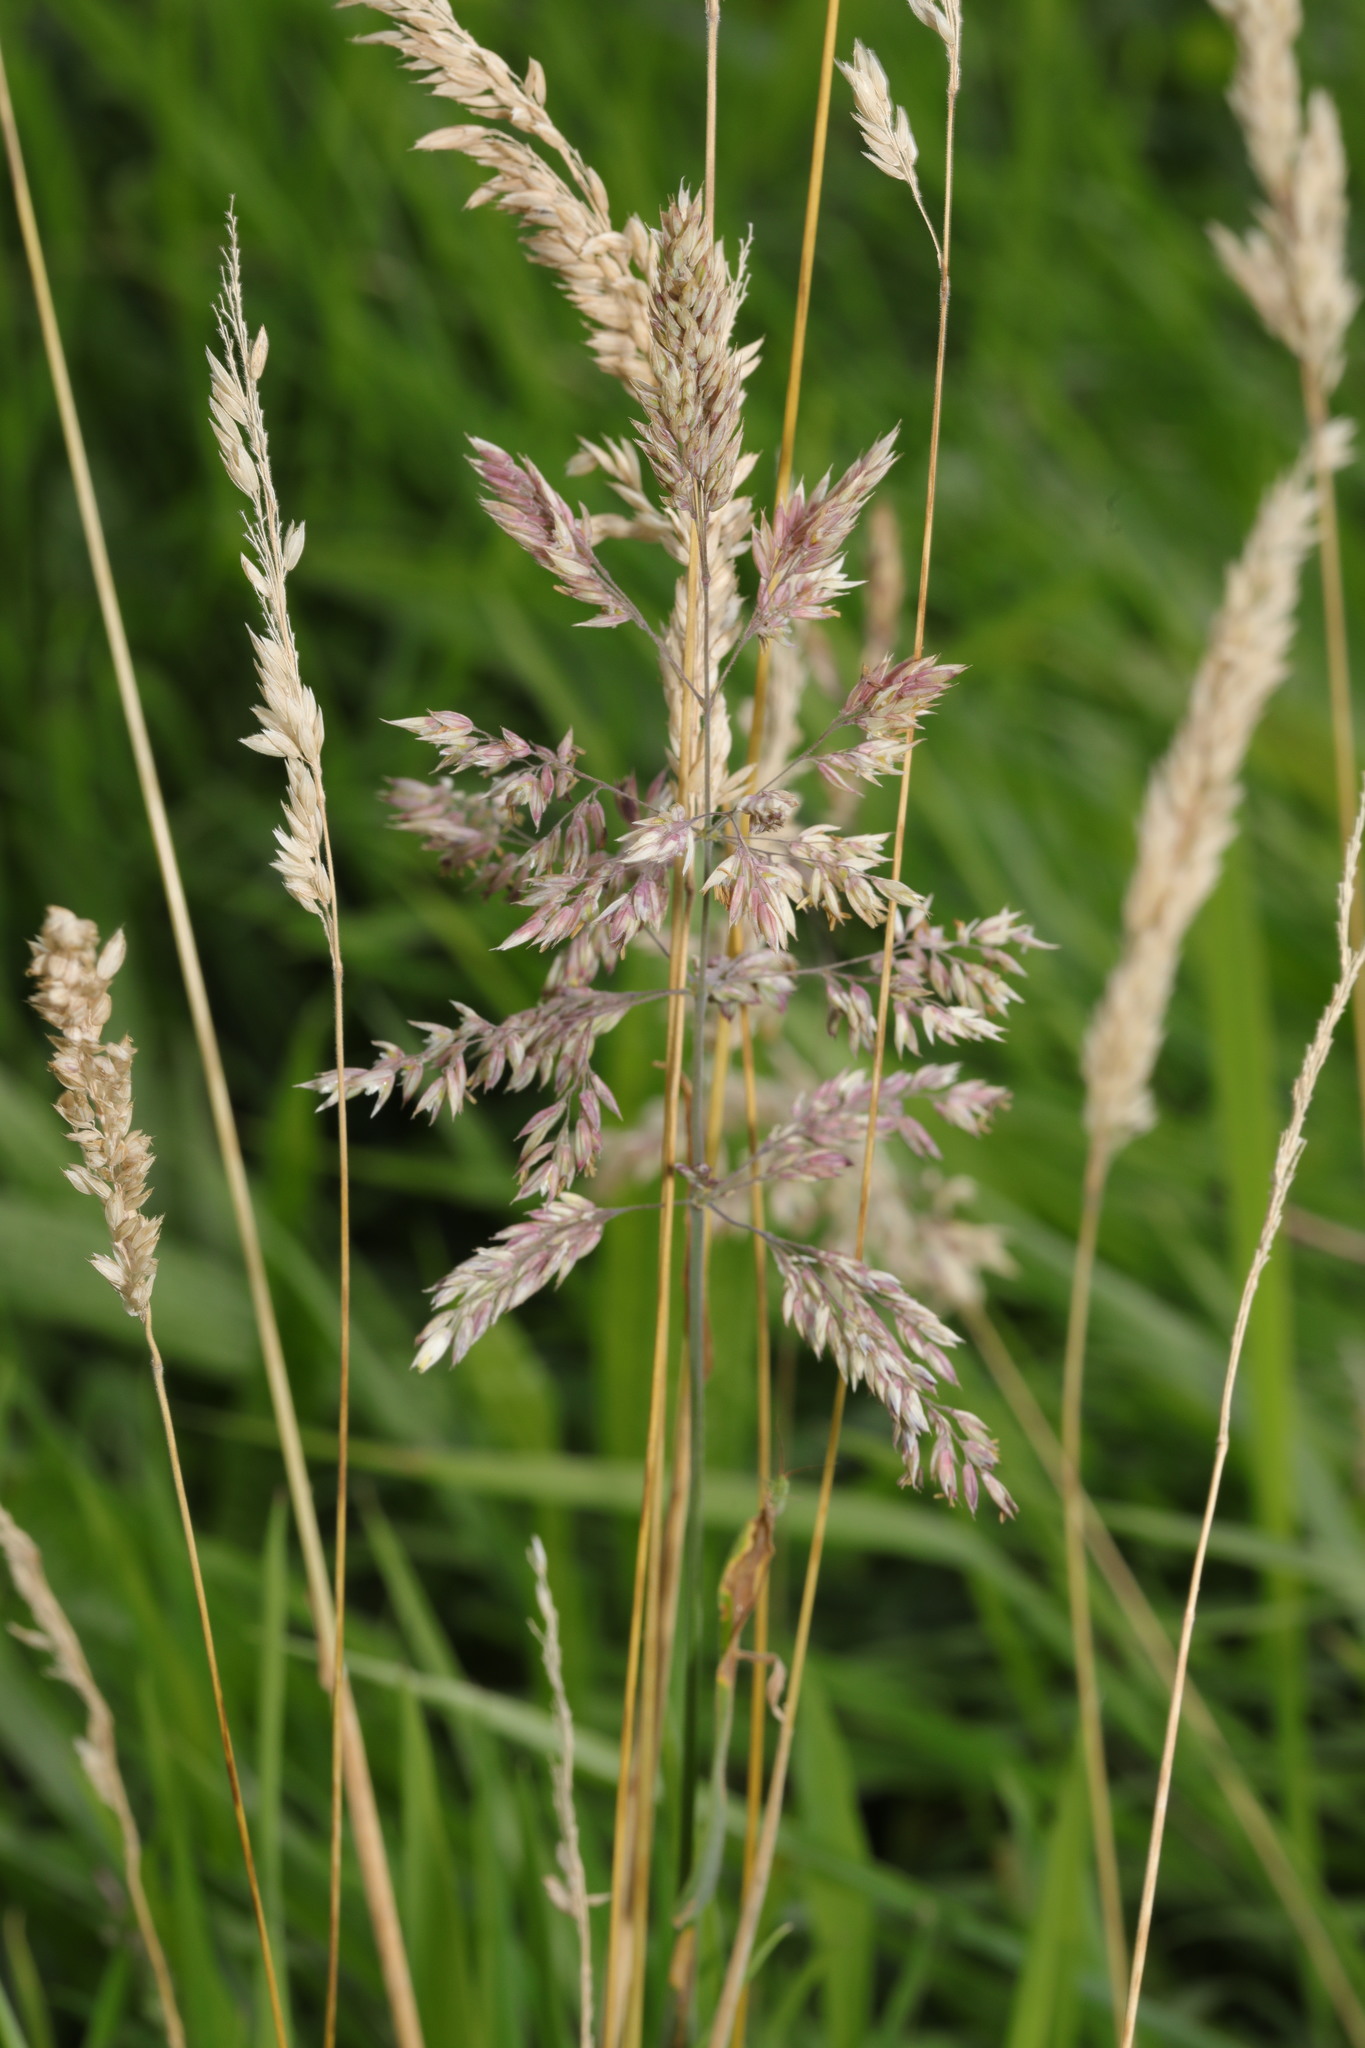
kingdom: Plantae
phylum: Tracheophyta
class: Liliopsida
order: Poales
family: Poaceae
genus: Holcus
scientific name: Holcus lanatus
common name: Yorkshire-fog
